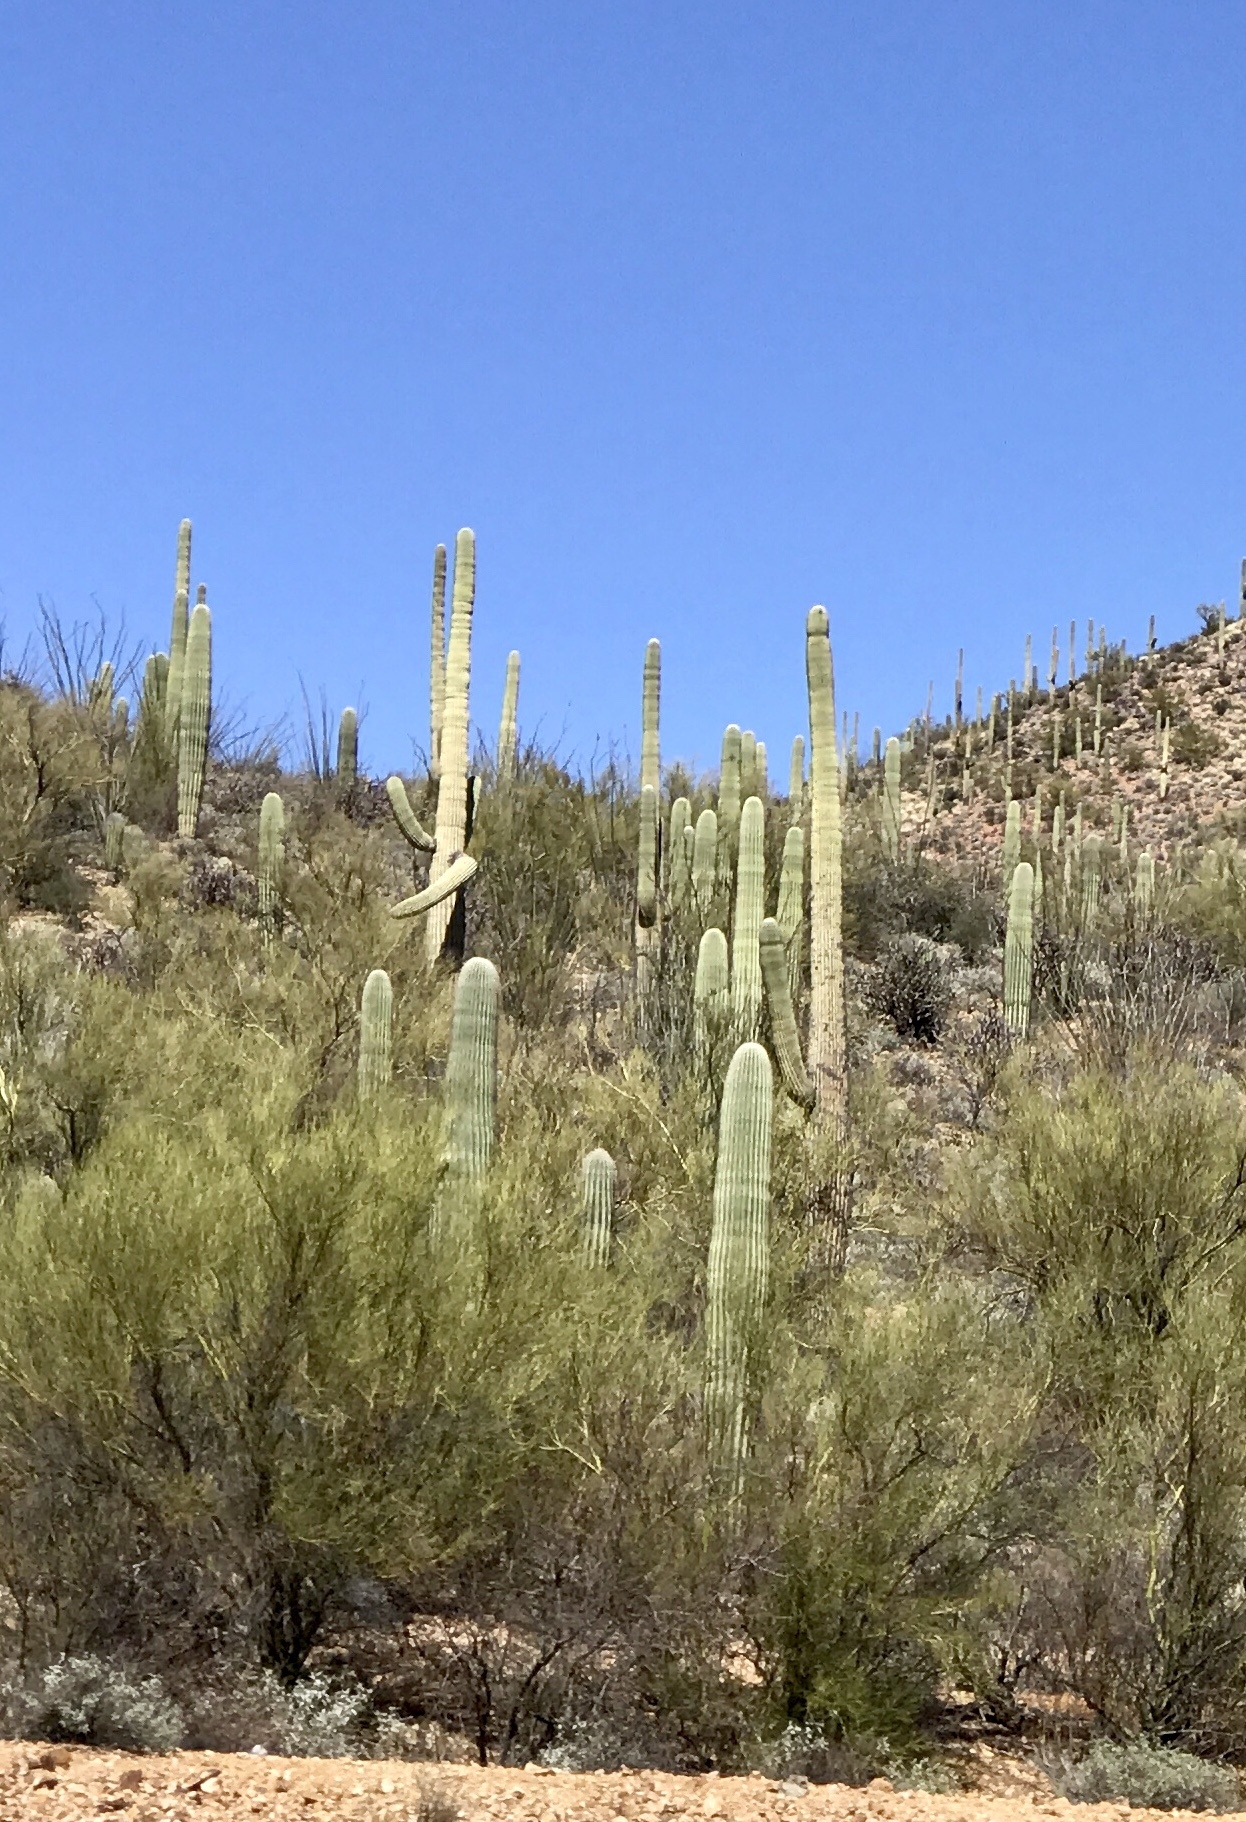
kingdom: Plantae
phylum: Tracheophyta
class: Magnoliopsida
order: Caryophyllales
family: Cactaceae
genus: Carnegiea
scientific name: Carnegiea gigantea
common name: Saguaro
